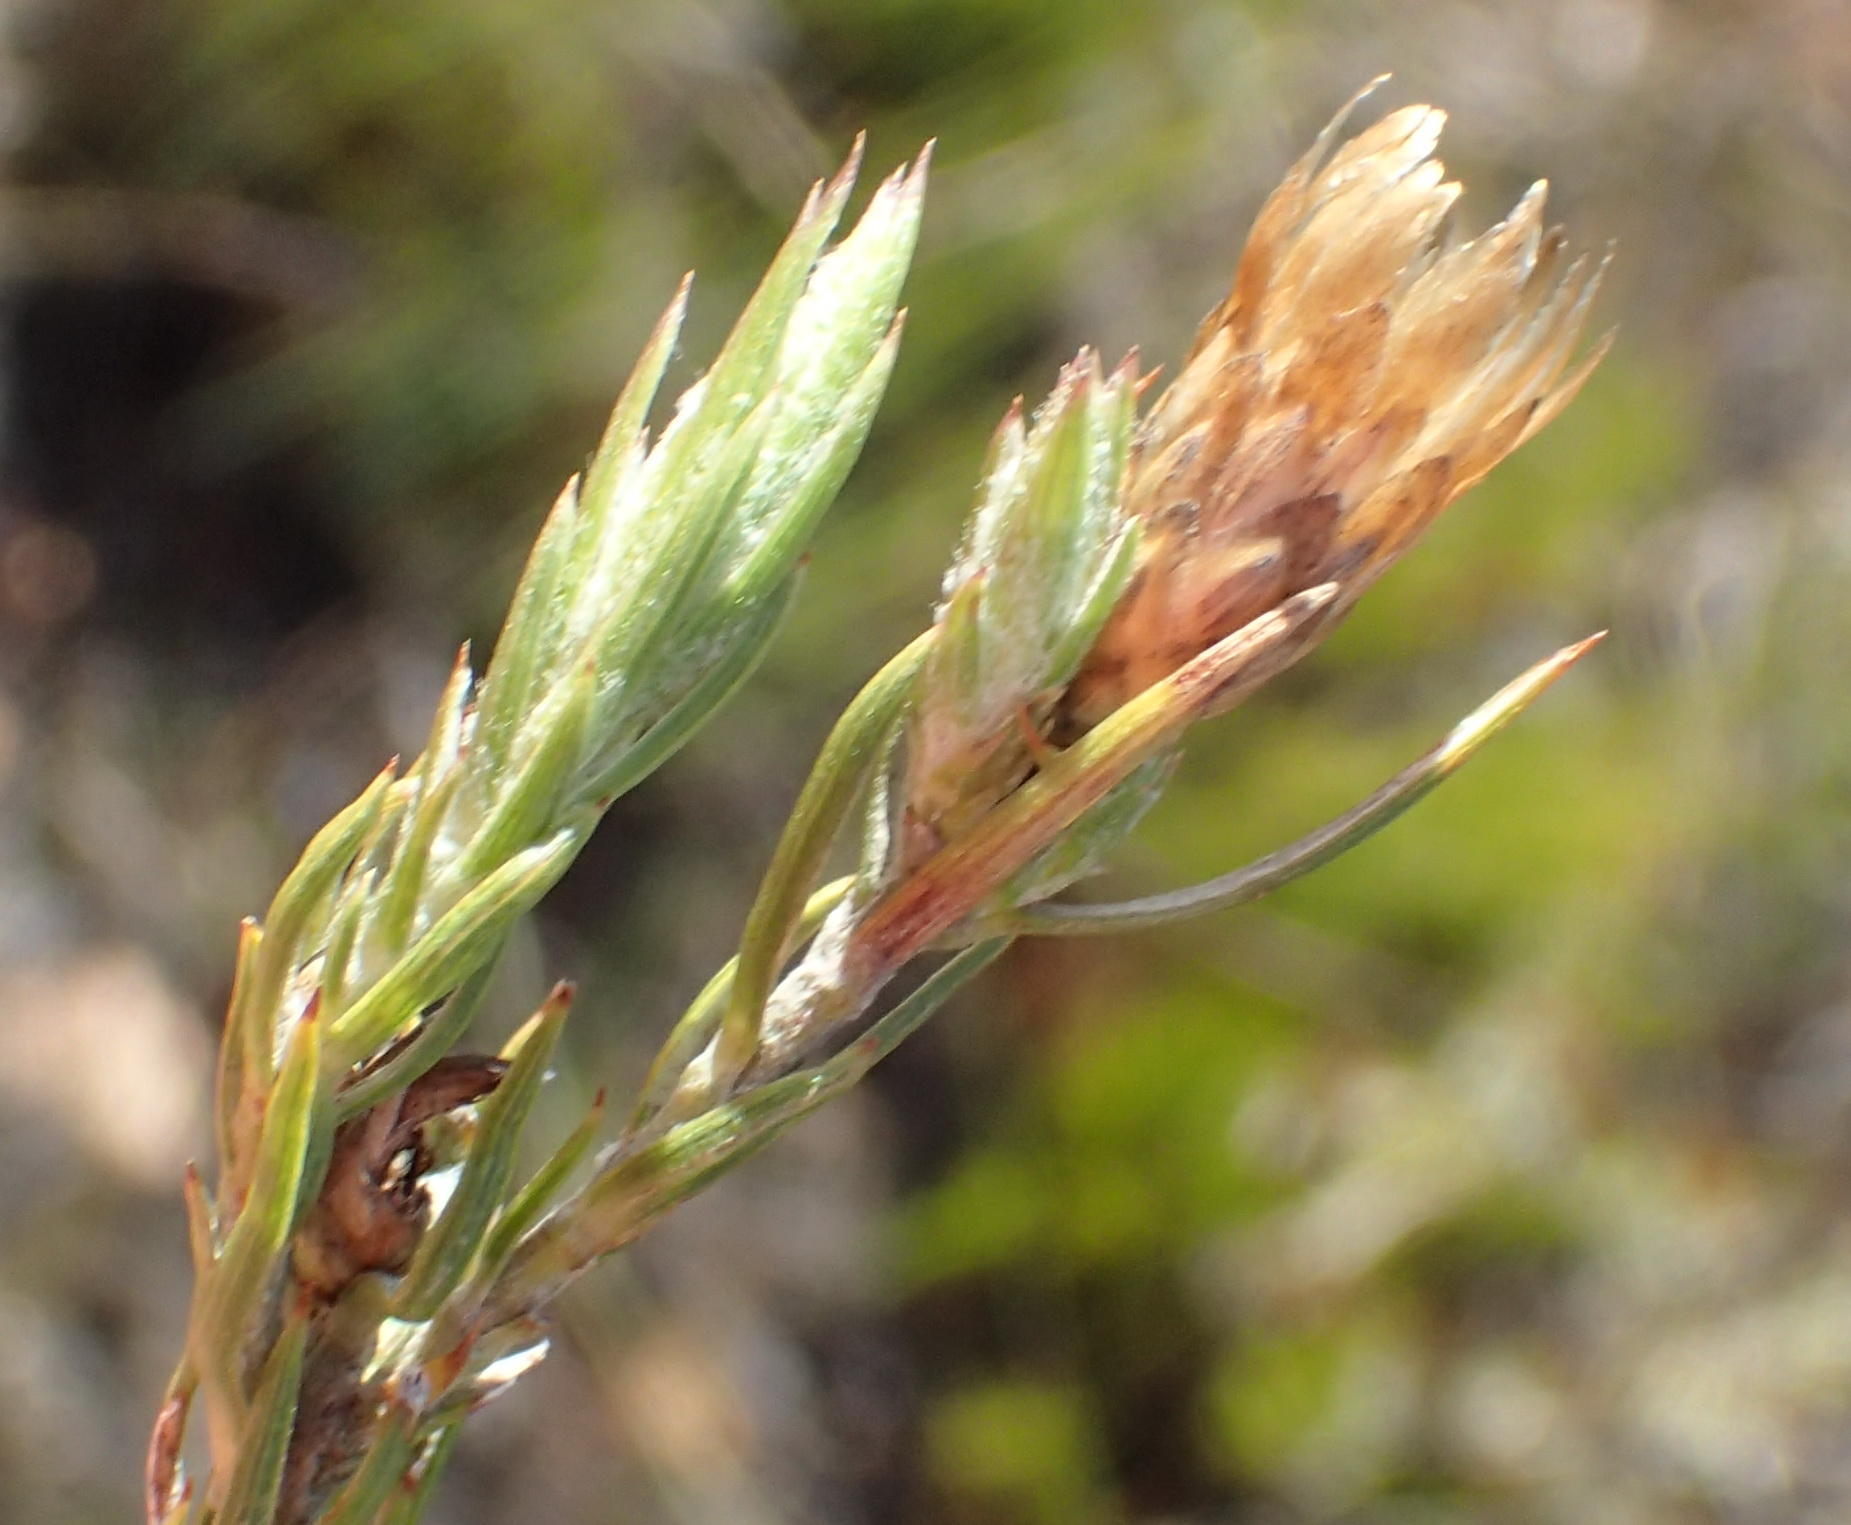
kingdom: Plantae
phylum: Tracheophyta
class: Magnoliopsida
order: Asterales
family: Asteraceae
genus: Oedera
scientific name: Oedera pungens
